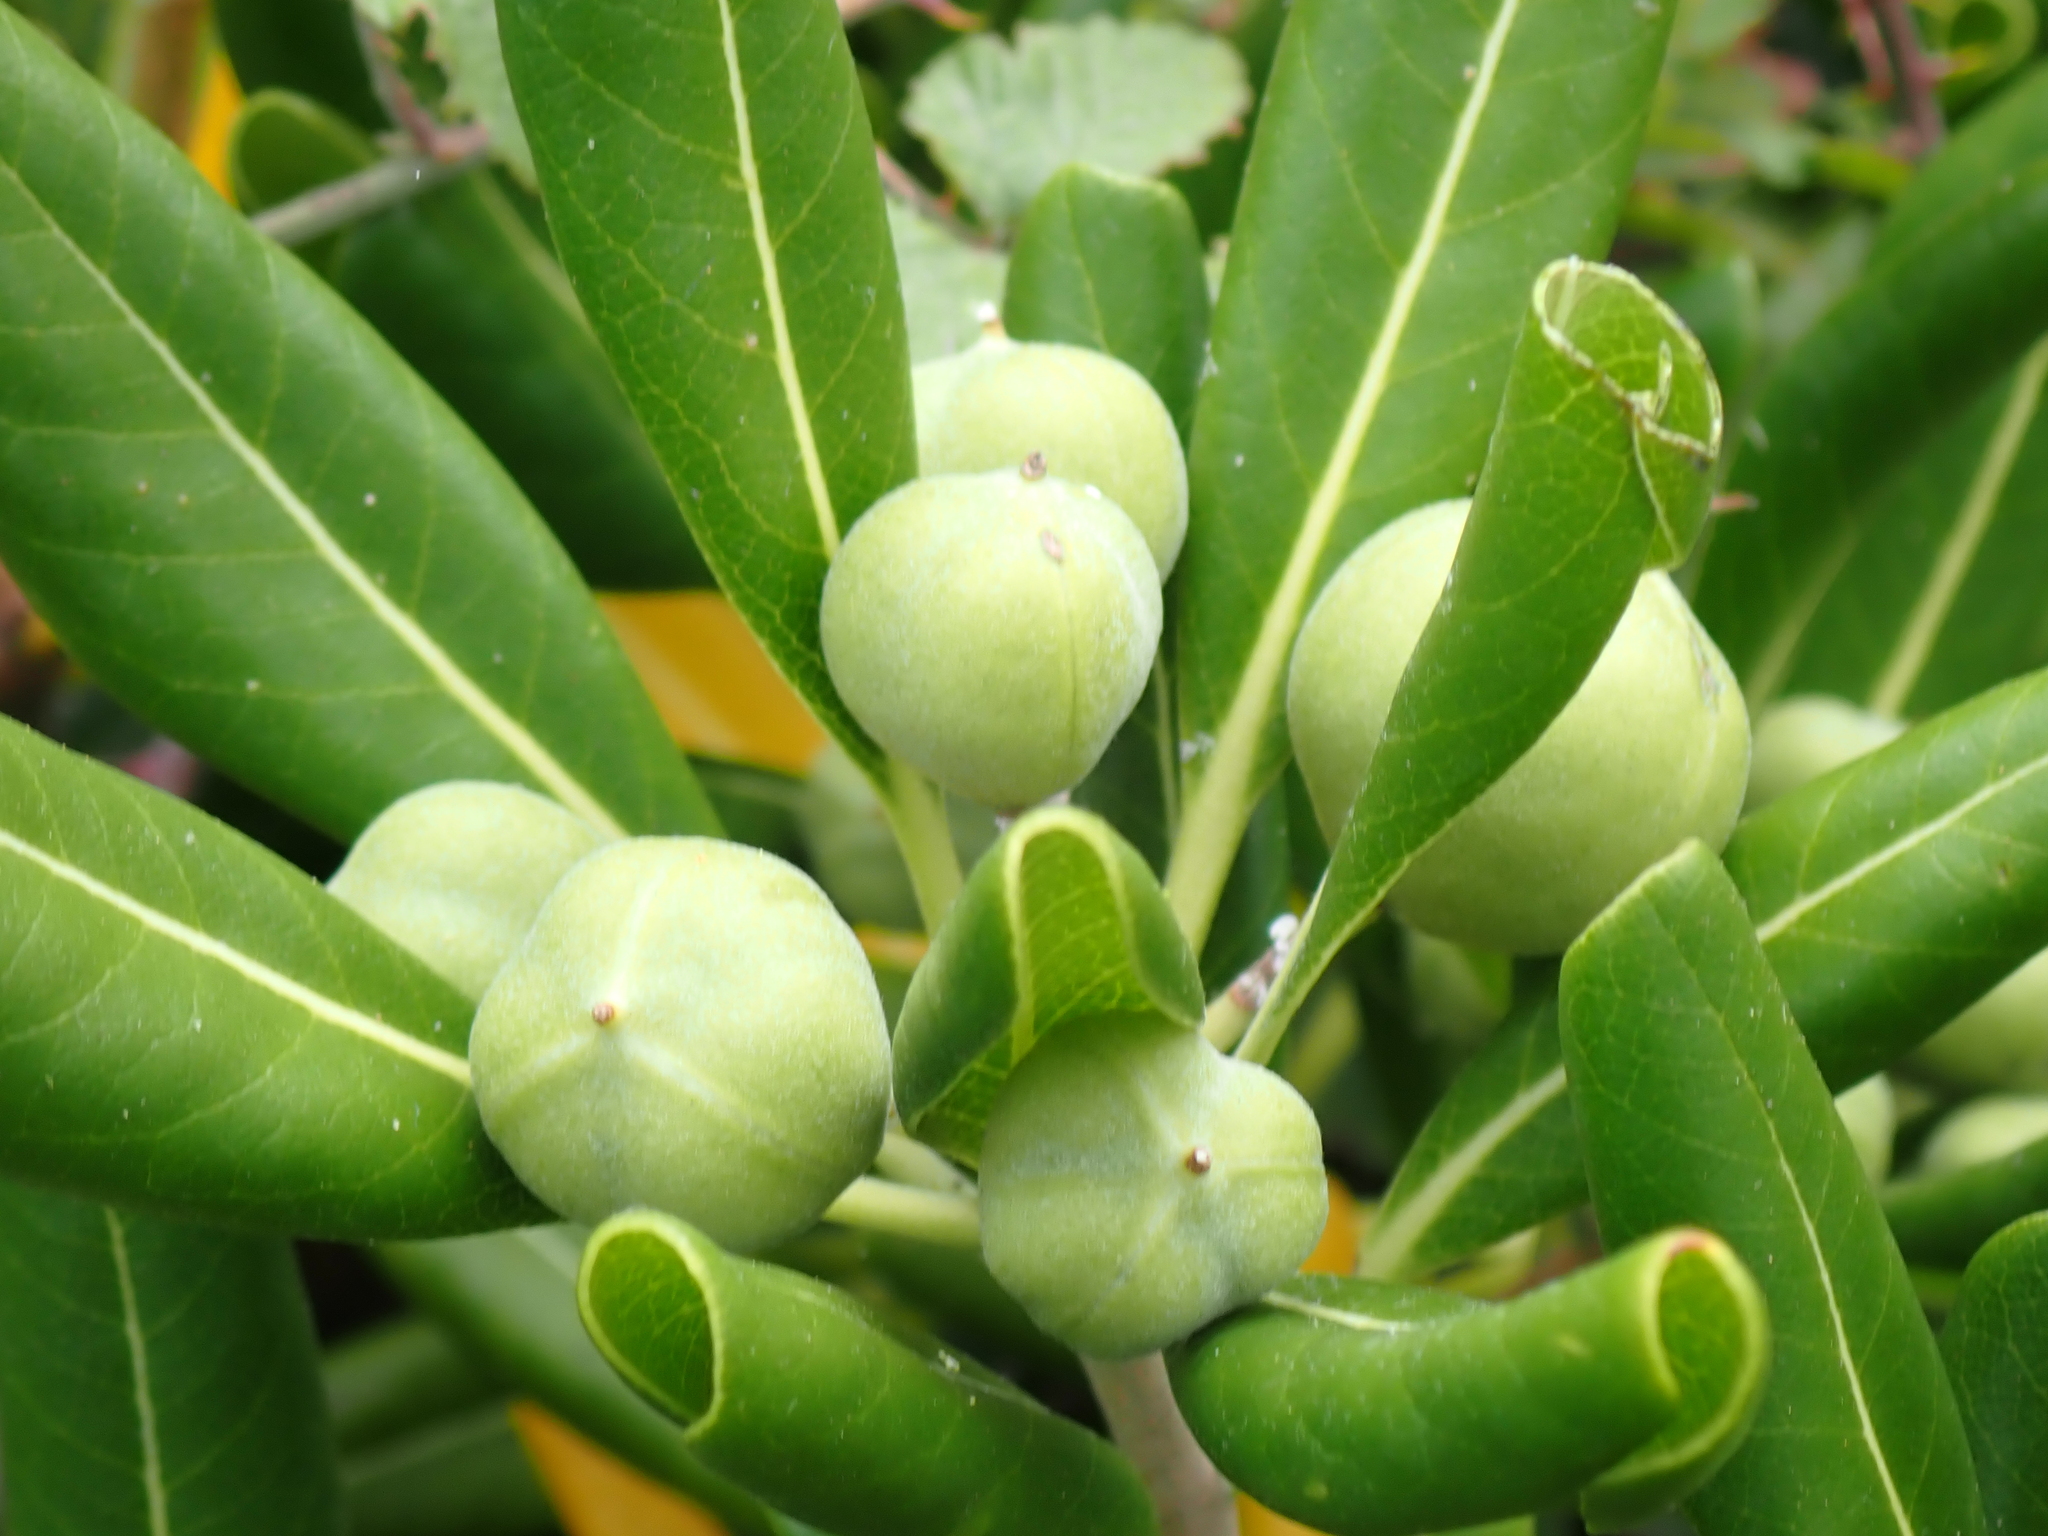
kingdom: Plantae
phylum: Tracheophyta
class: Magnoliopsida
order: Apiales
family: Pittosporaceae
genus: Pittosporum
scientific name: Pittosporum tobira
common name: Japanese cheesewood
